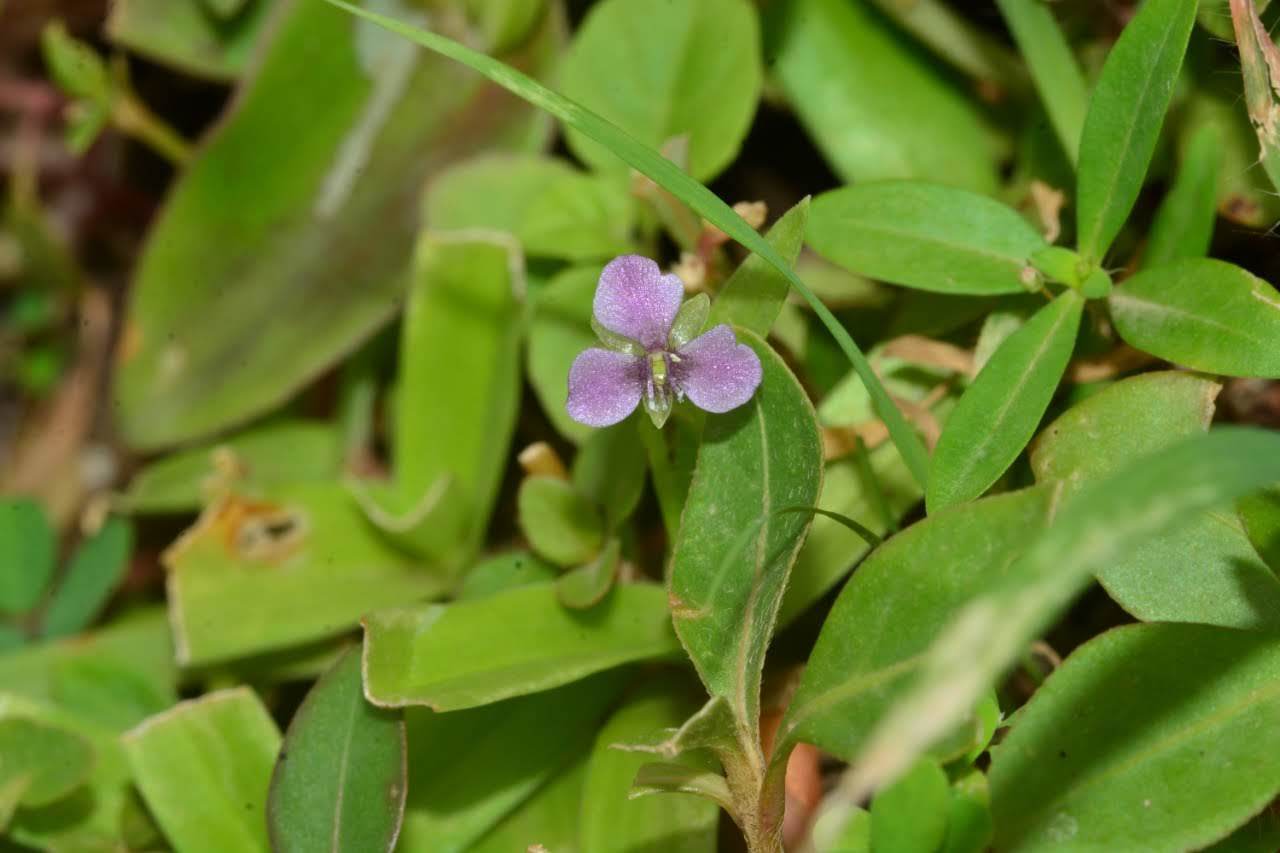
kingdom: Plantae
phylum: Tracheophyta
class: Liliopsida
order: Commelinales
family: Commelinaceae
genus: Murdannia
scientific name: Murdannia nudiflora
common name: Nakedstem dewflower
